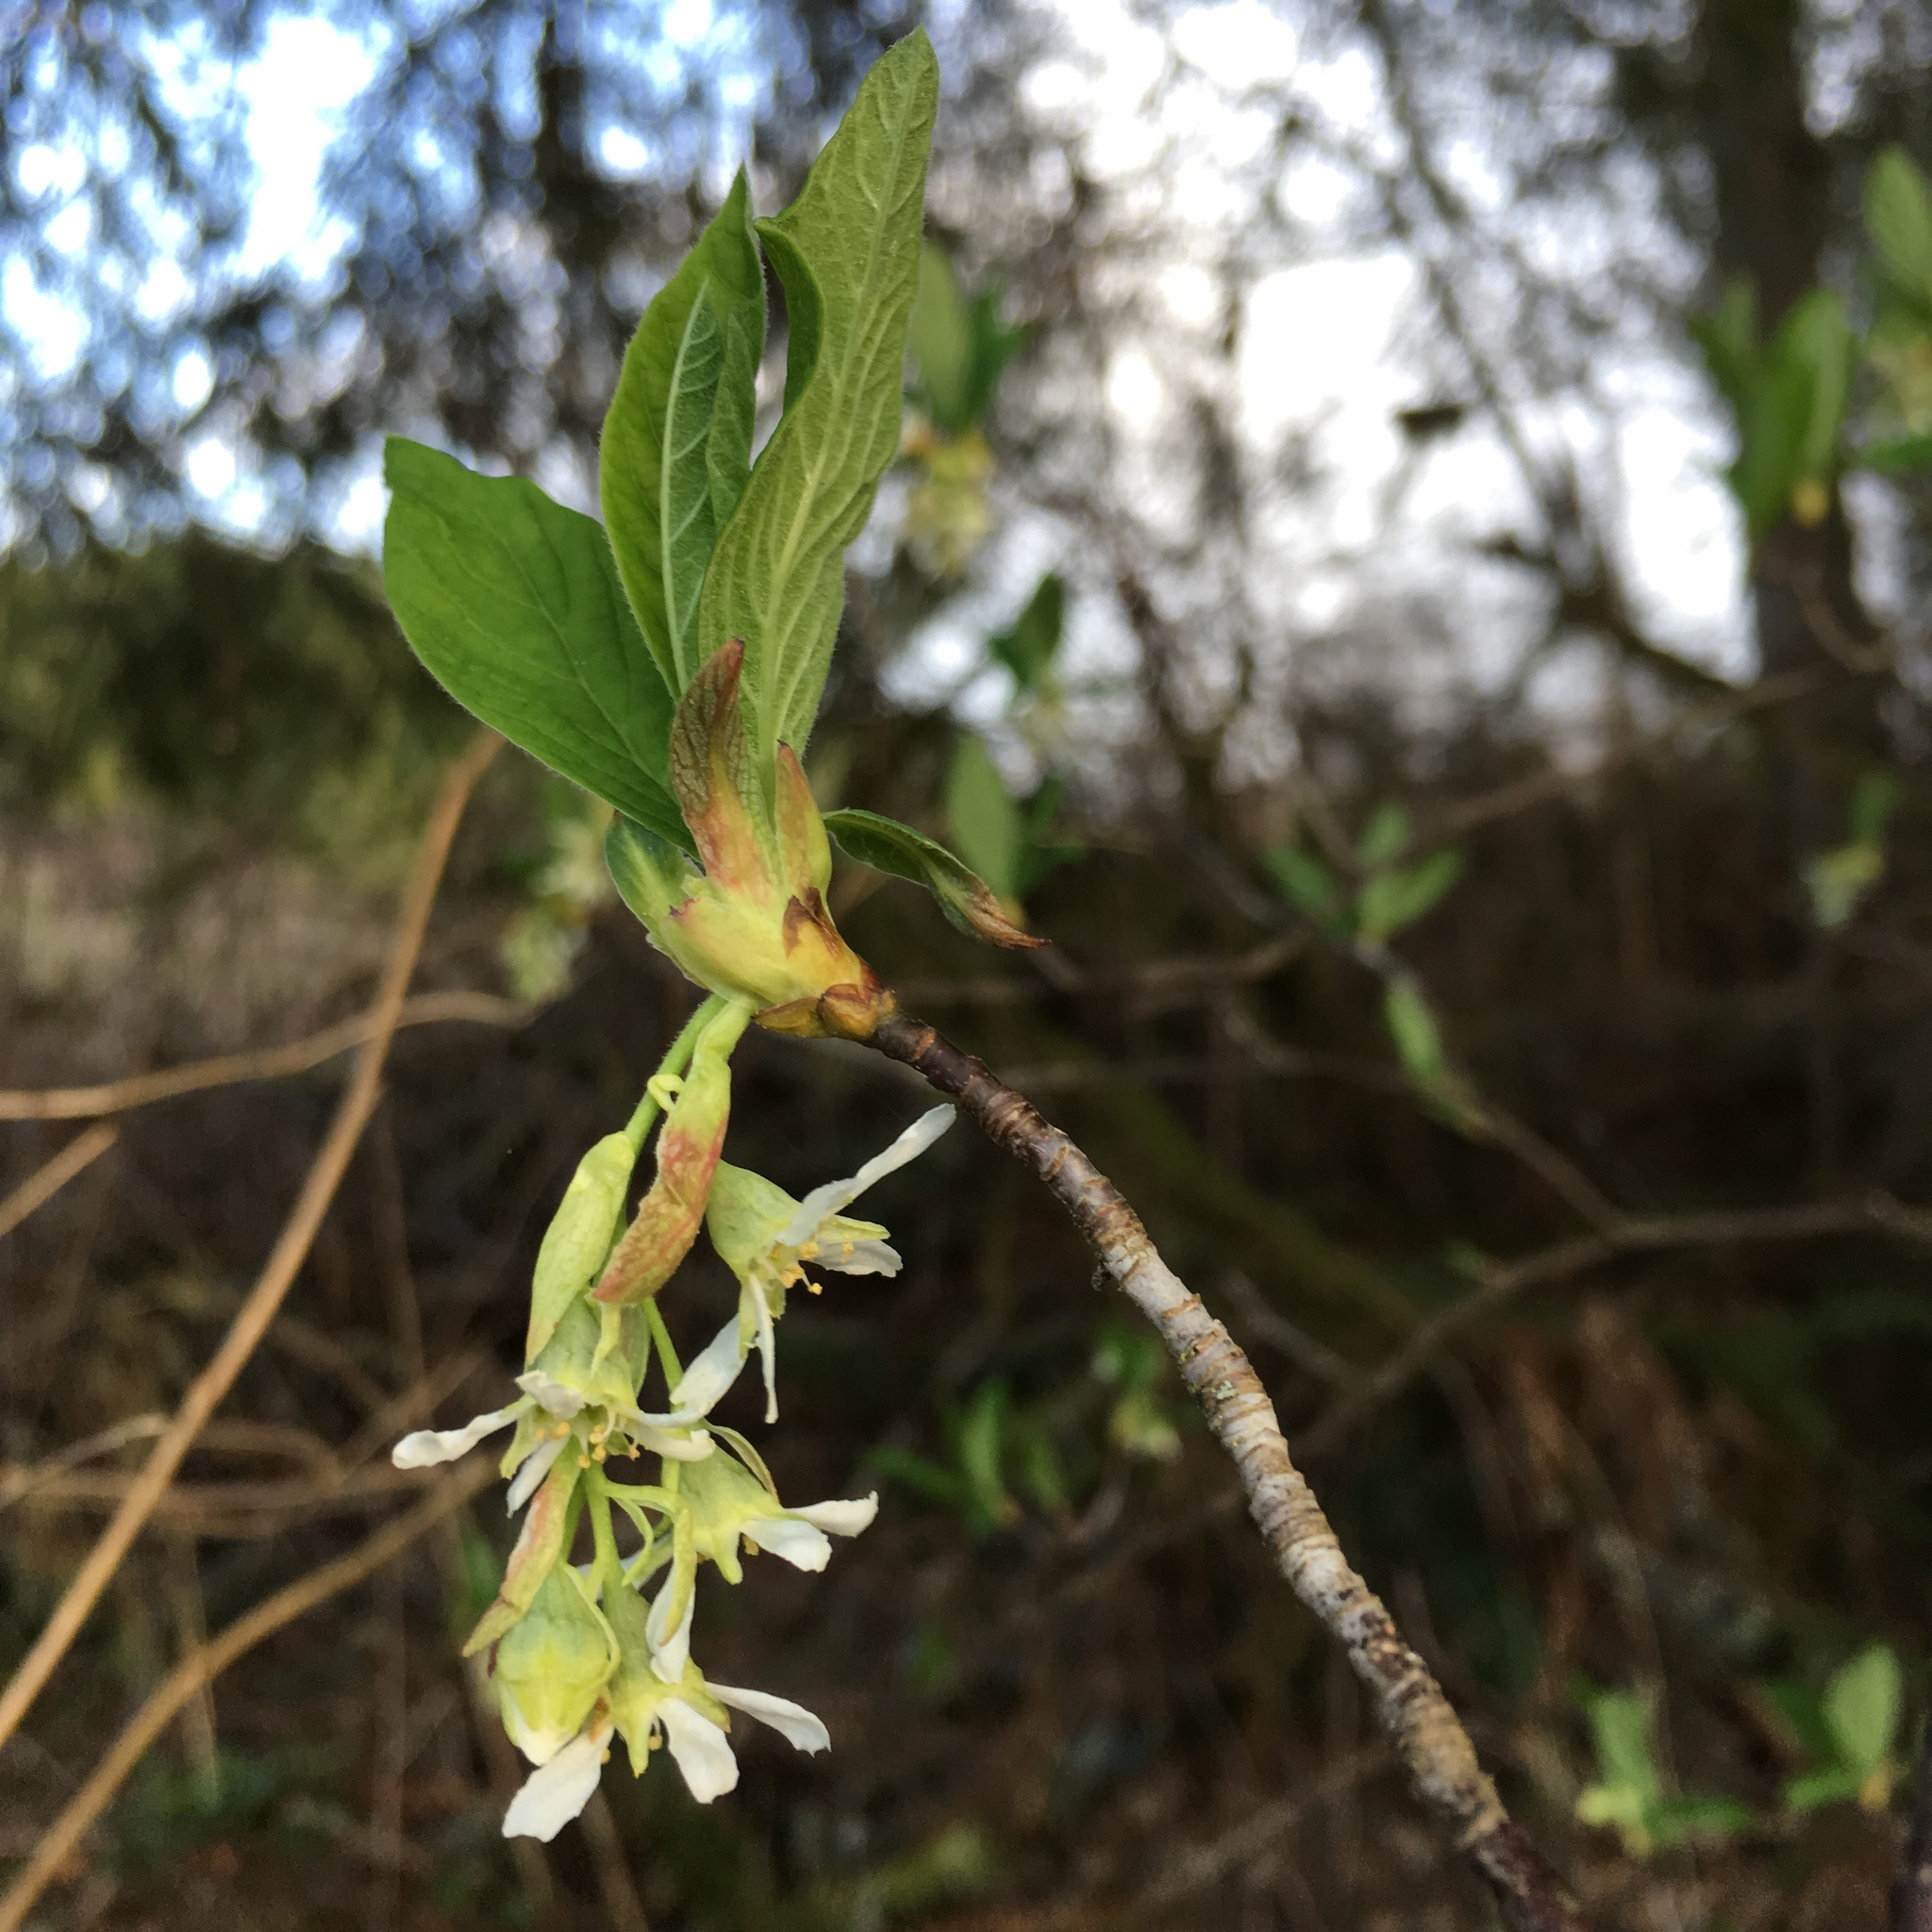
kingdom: Plantae
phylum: Tracheophyta
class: Magnoliopsida
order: Rosales
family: Rosaceae
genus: Oemleria
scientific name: Oemleria cerasiformis
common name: Osoberry
